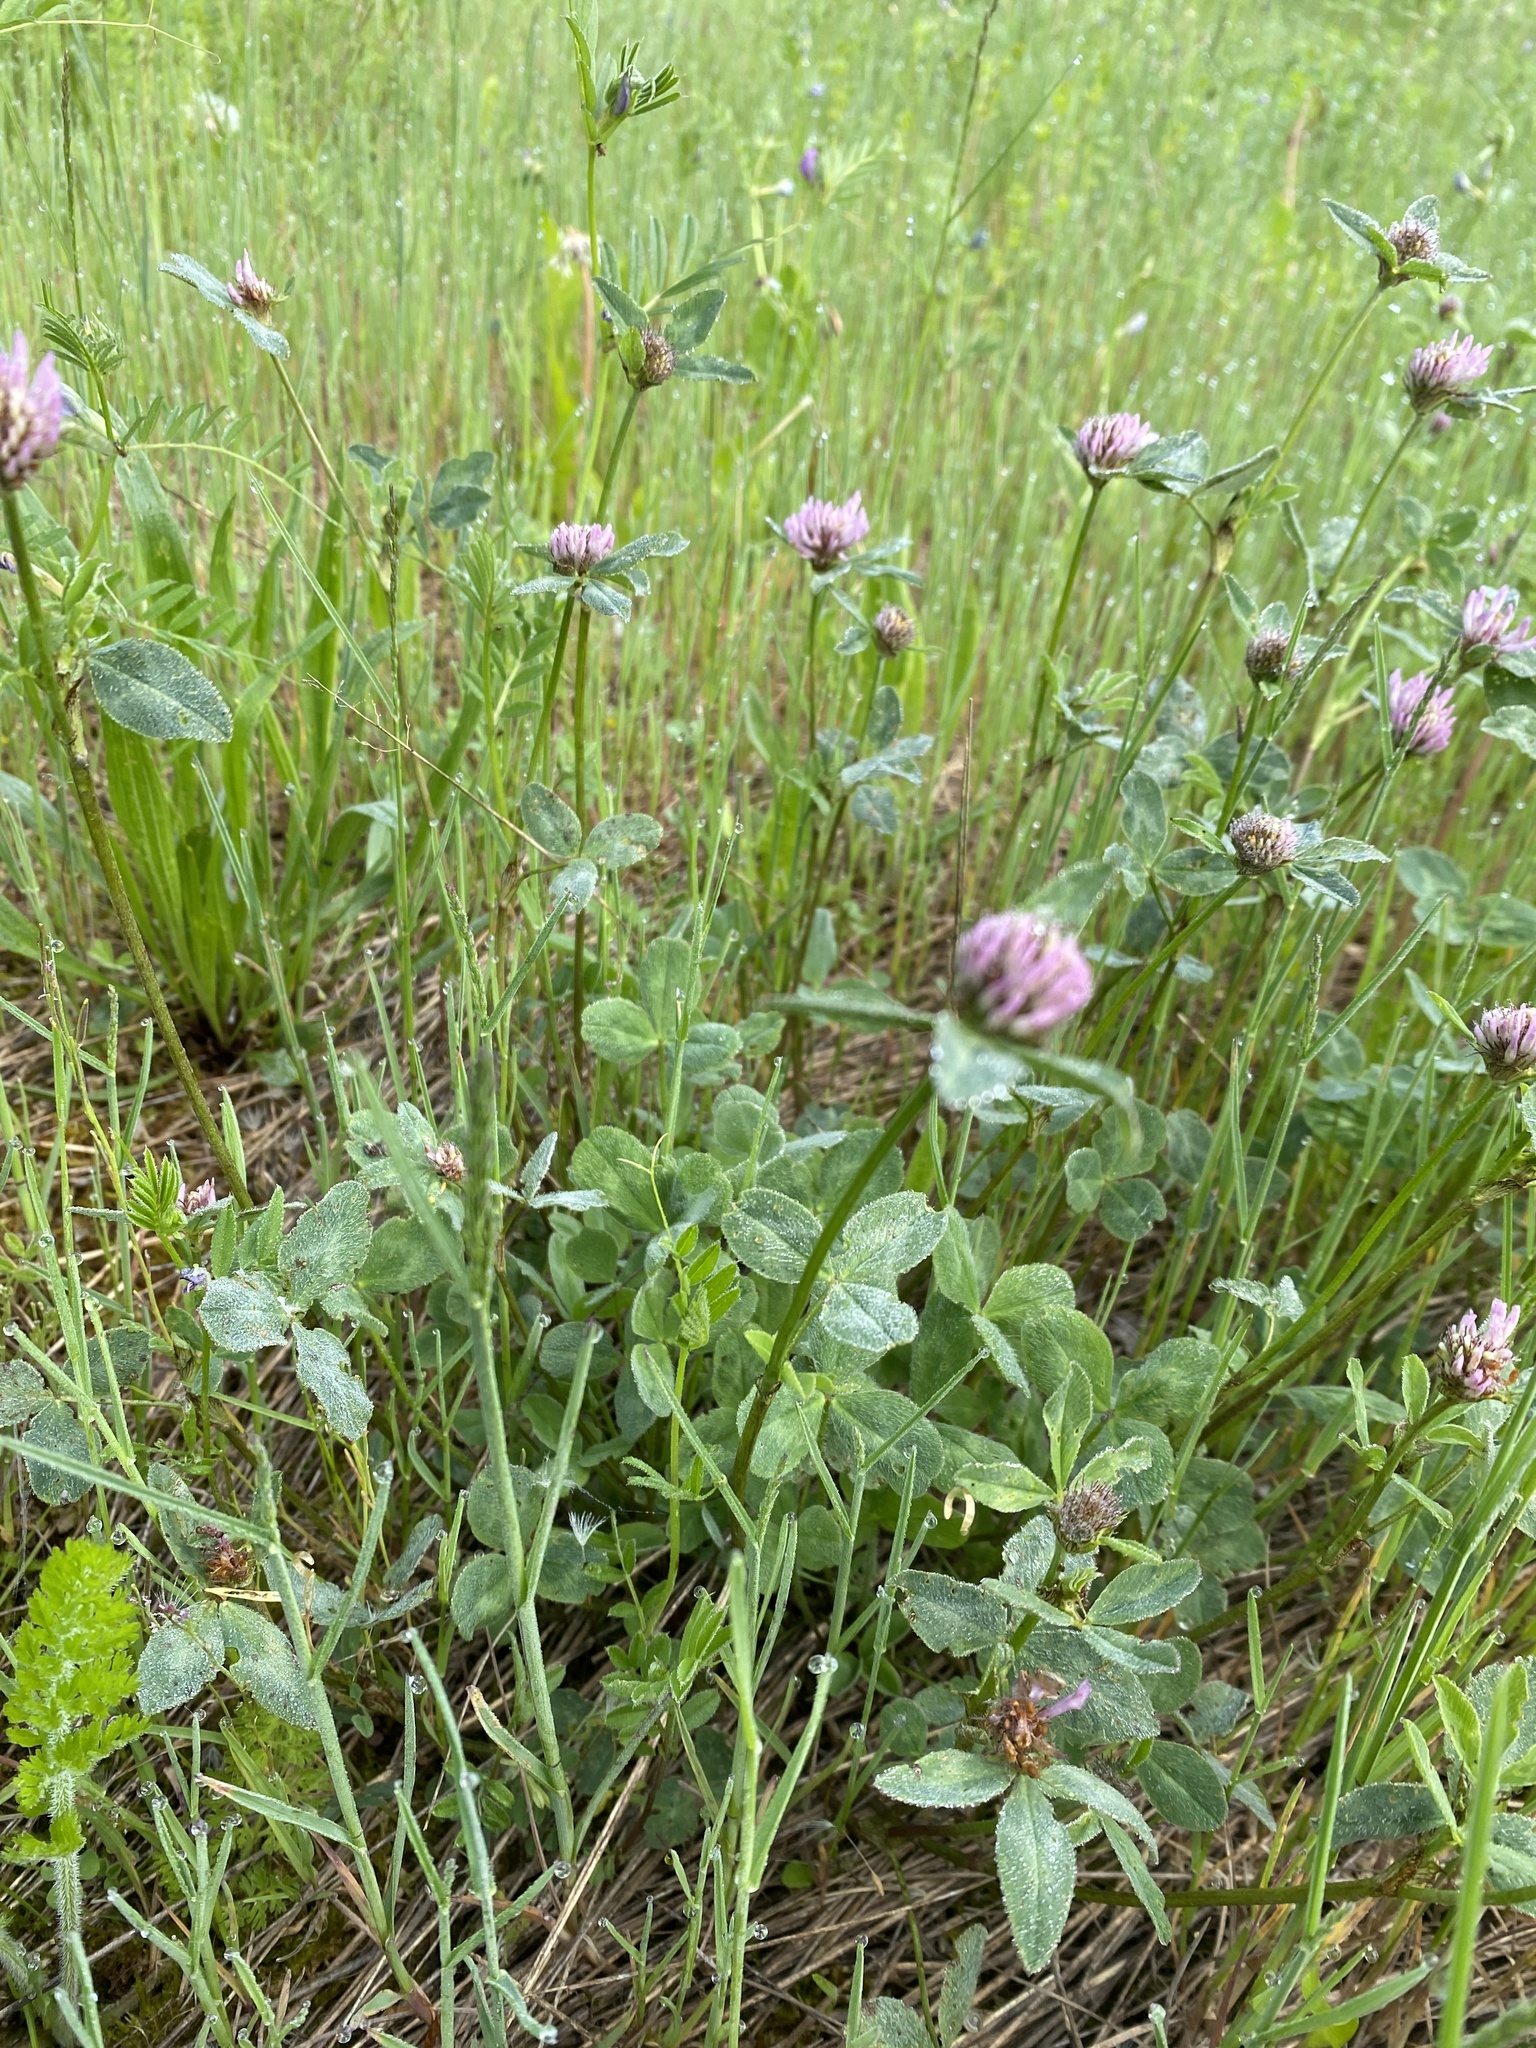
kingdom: Plantae
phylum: Tracheophyta
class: Magnoliopsida
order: Fabales
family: Fabaceae
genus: Trifolium
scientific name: Trifolium pratense
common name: Red clover
